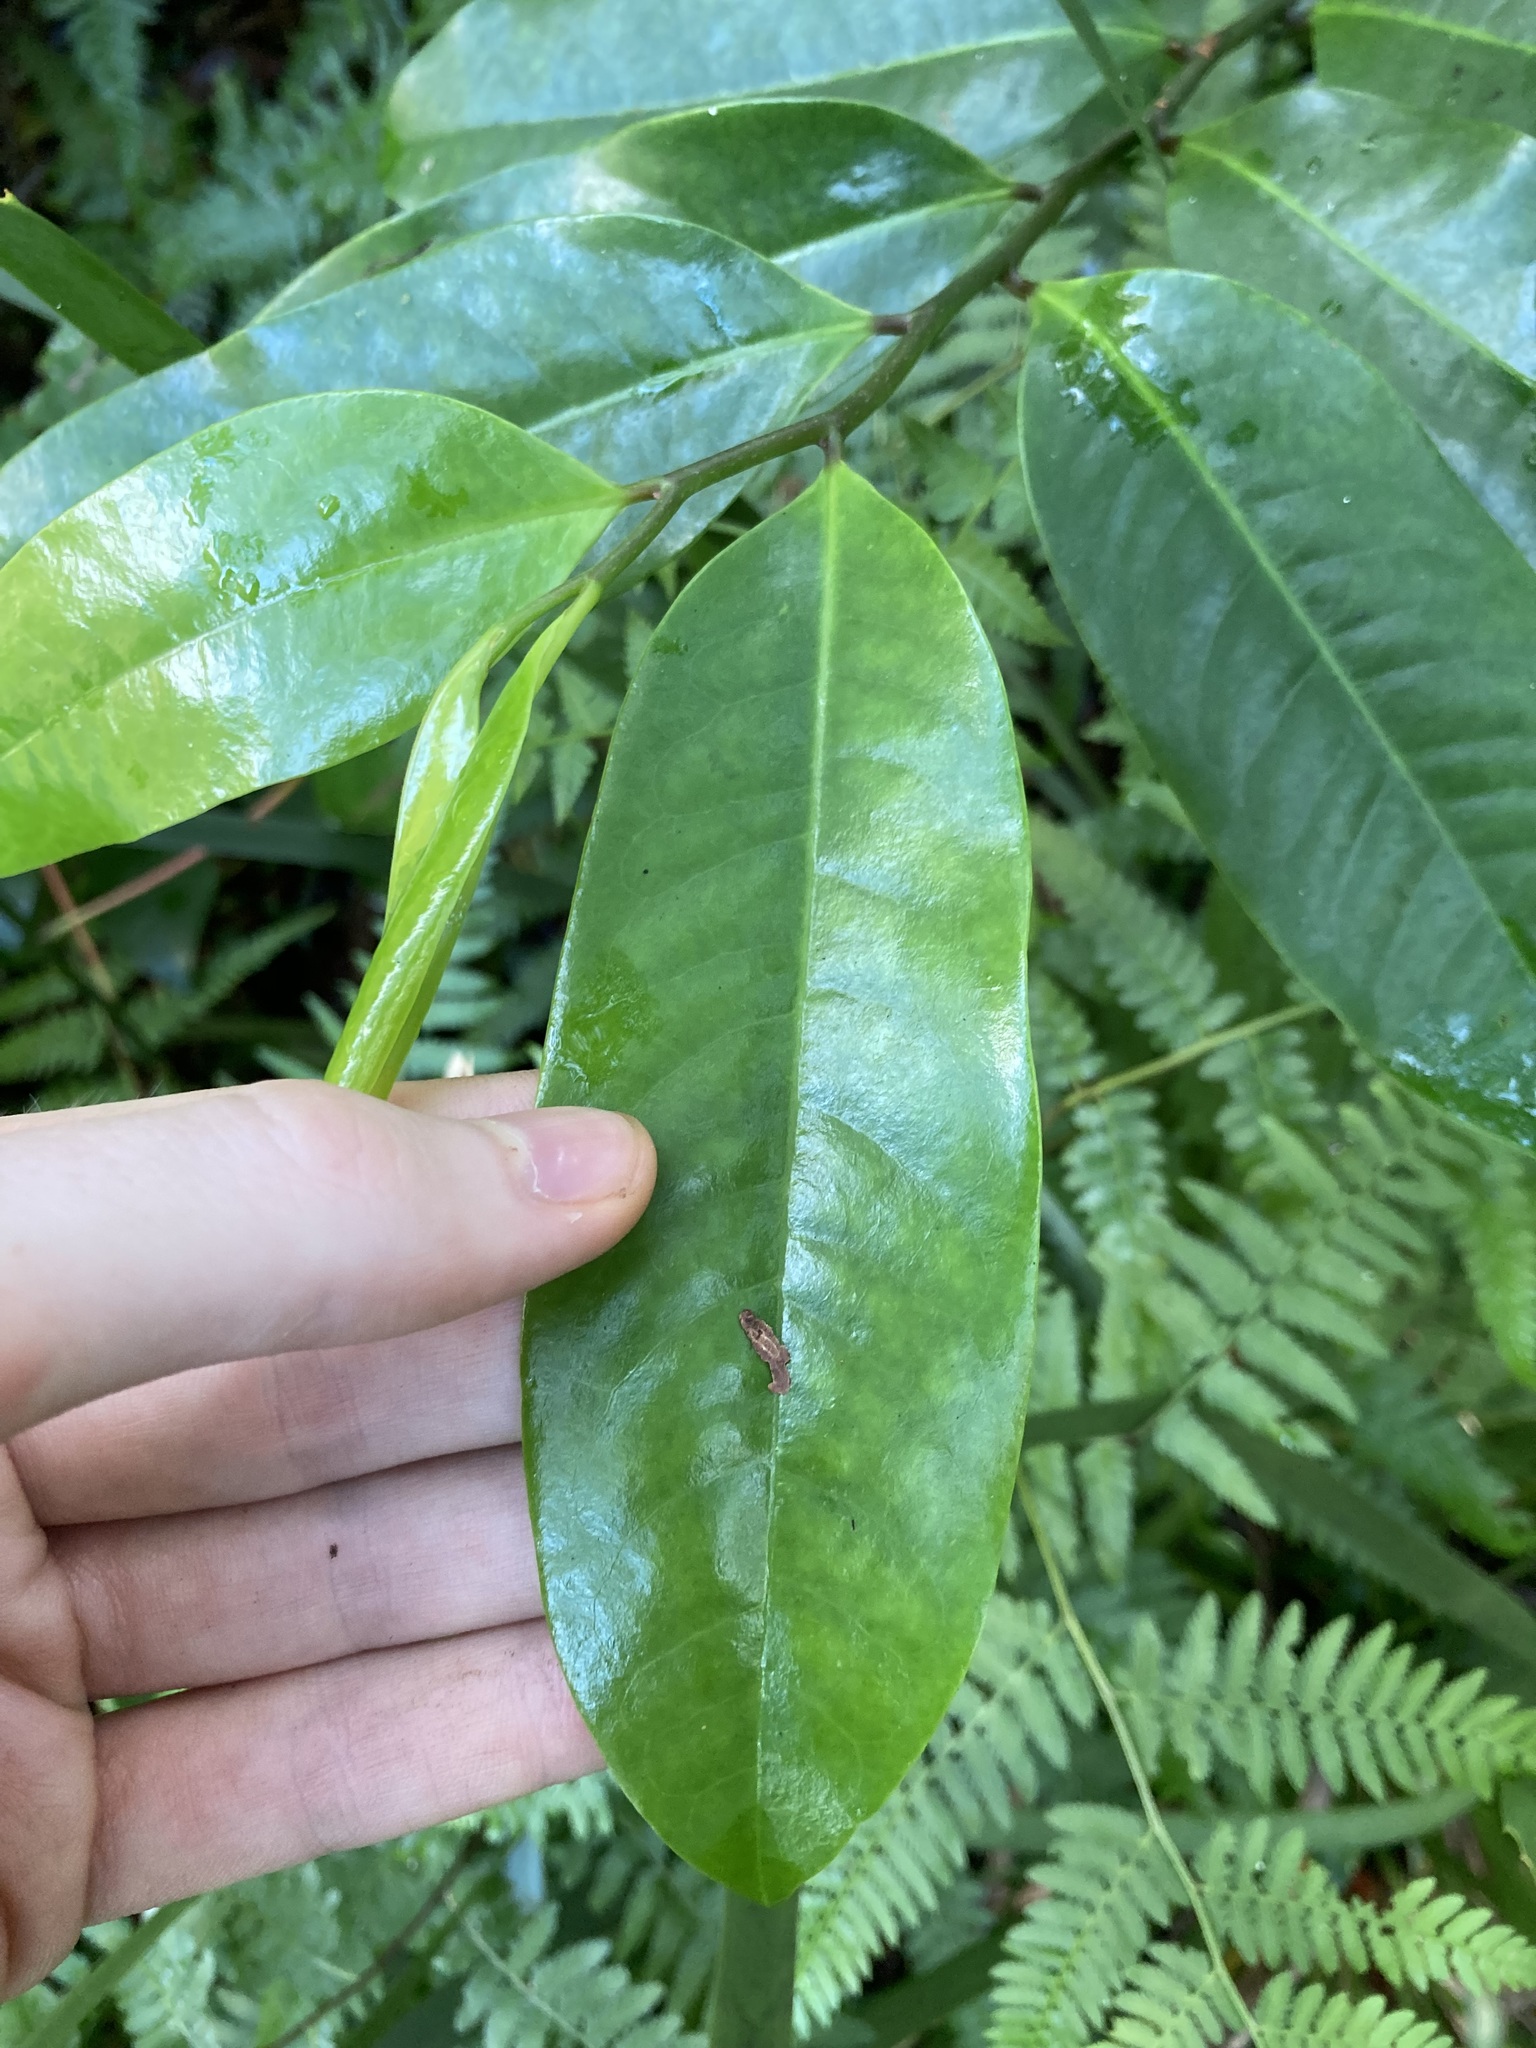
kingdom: Plantae
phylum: Tracheophyta
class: Magnoliopsida
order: Magnoliales
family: Eupomatiaceae
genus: Eupomatia
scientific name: Eupomatia laurina
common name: Bolwarra
